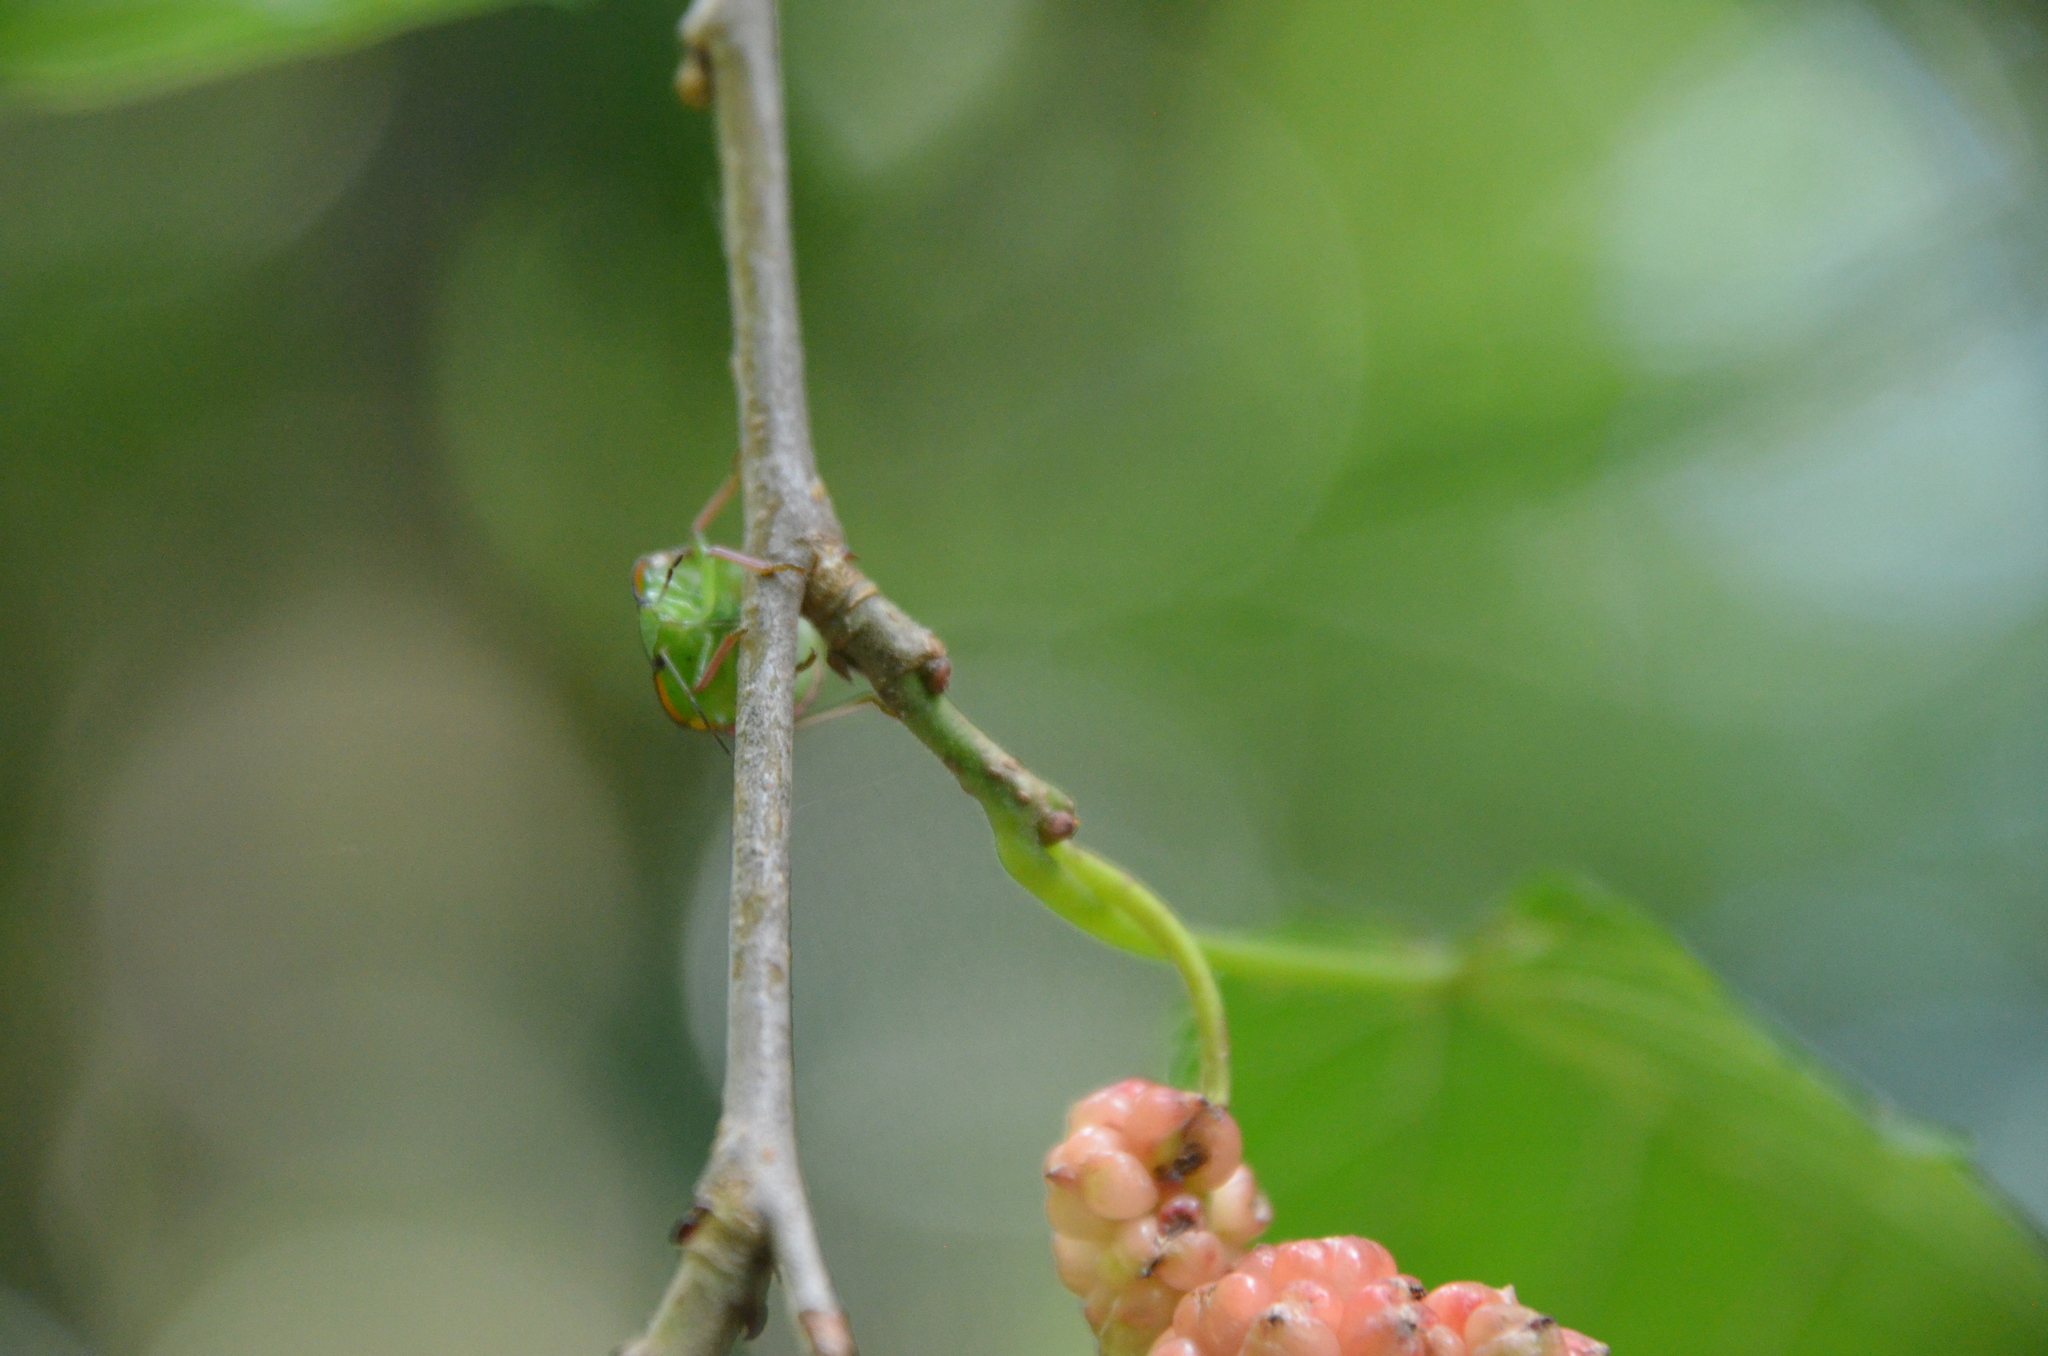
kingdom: Animalia
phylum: Arthropoda
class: Insecta
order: Hemiptera
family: Pentatomidae
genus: Nezara
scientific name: Nezara viridula
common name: Southern green stink bug
